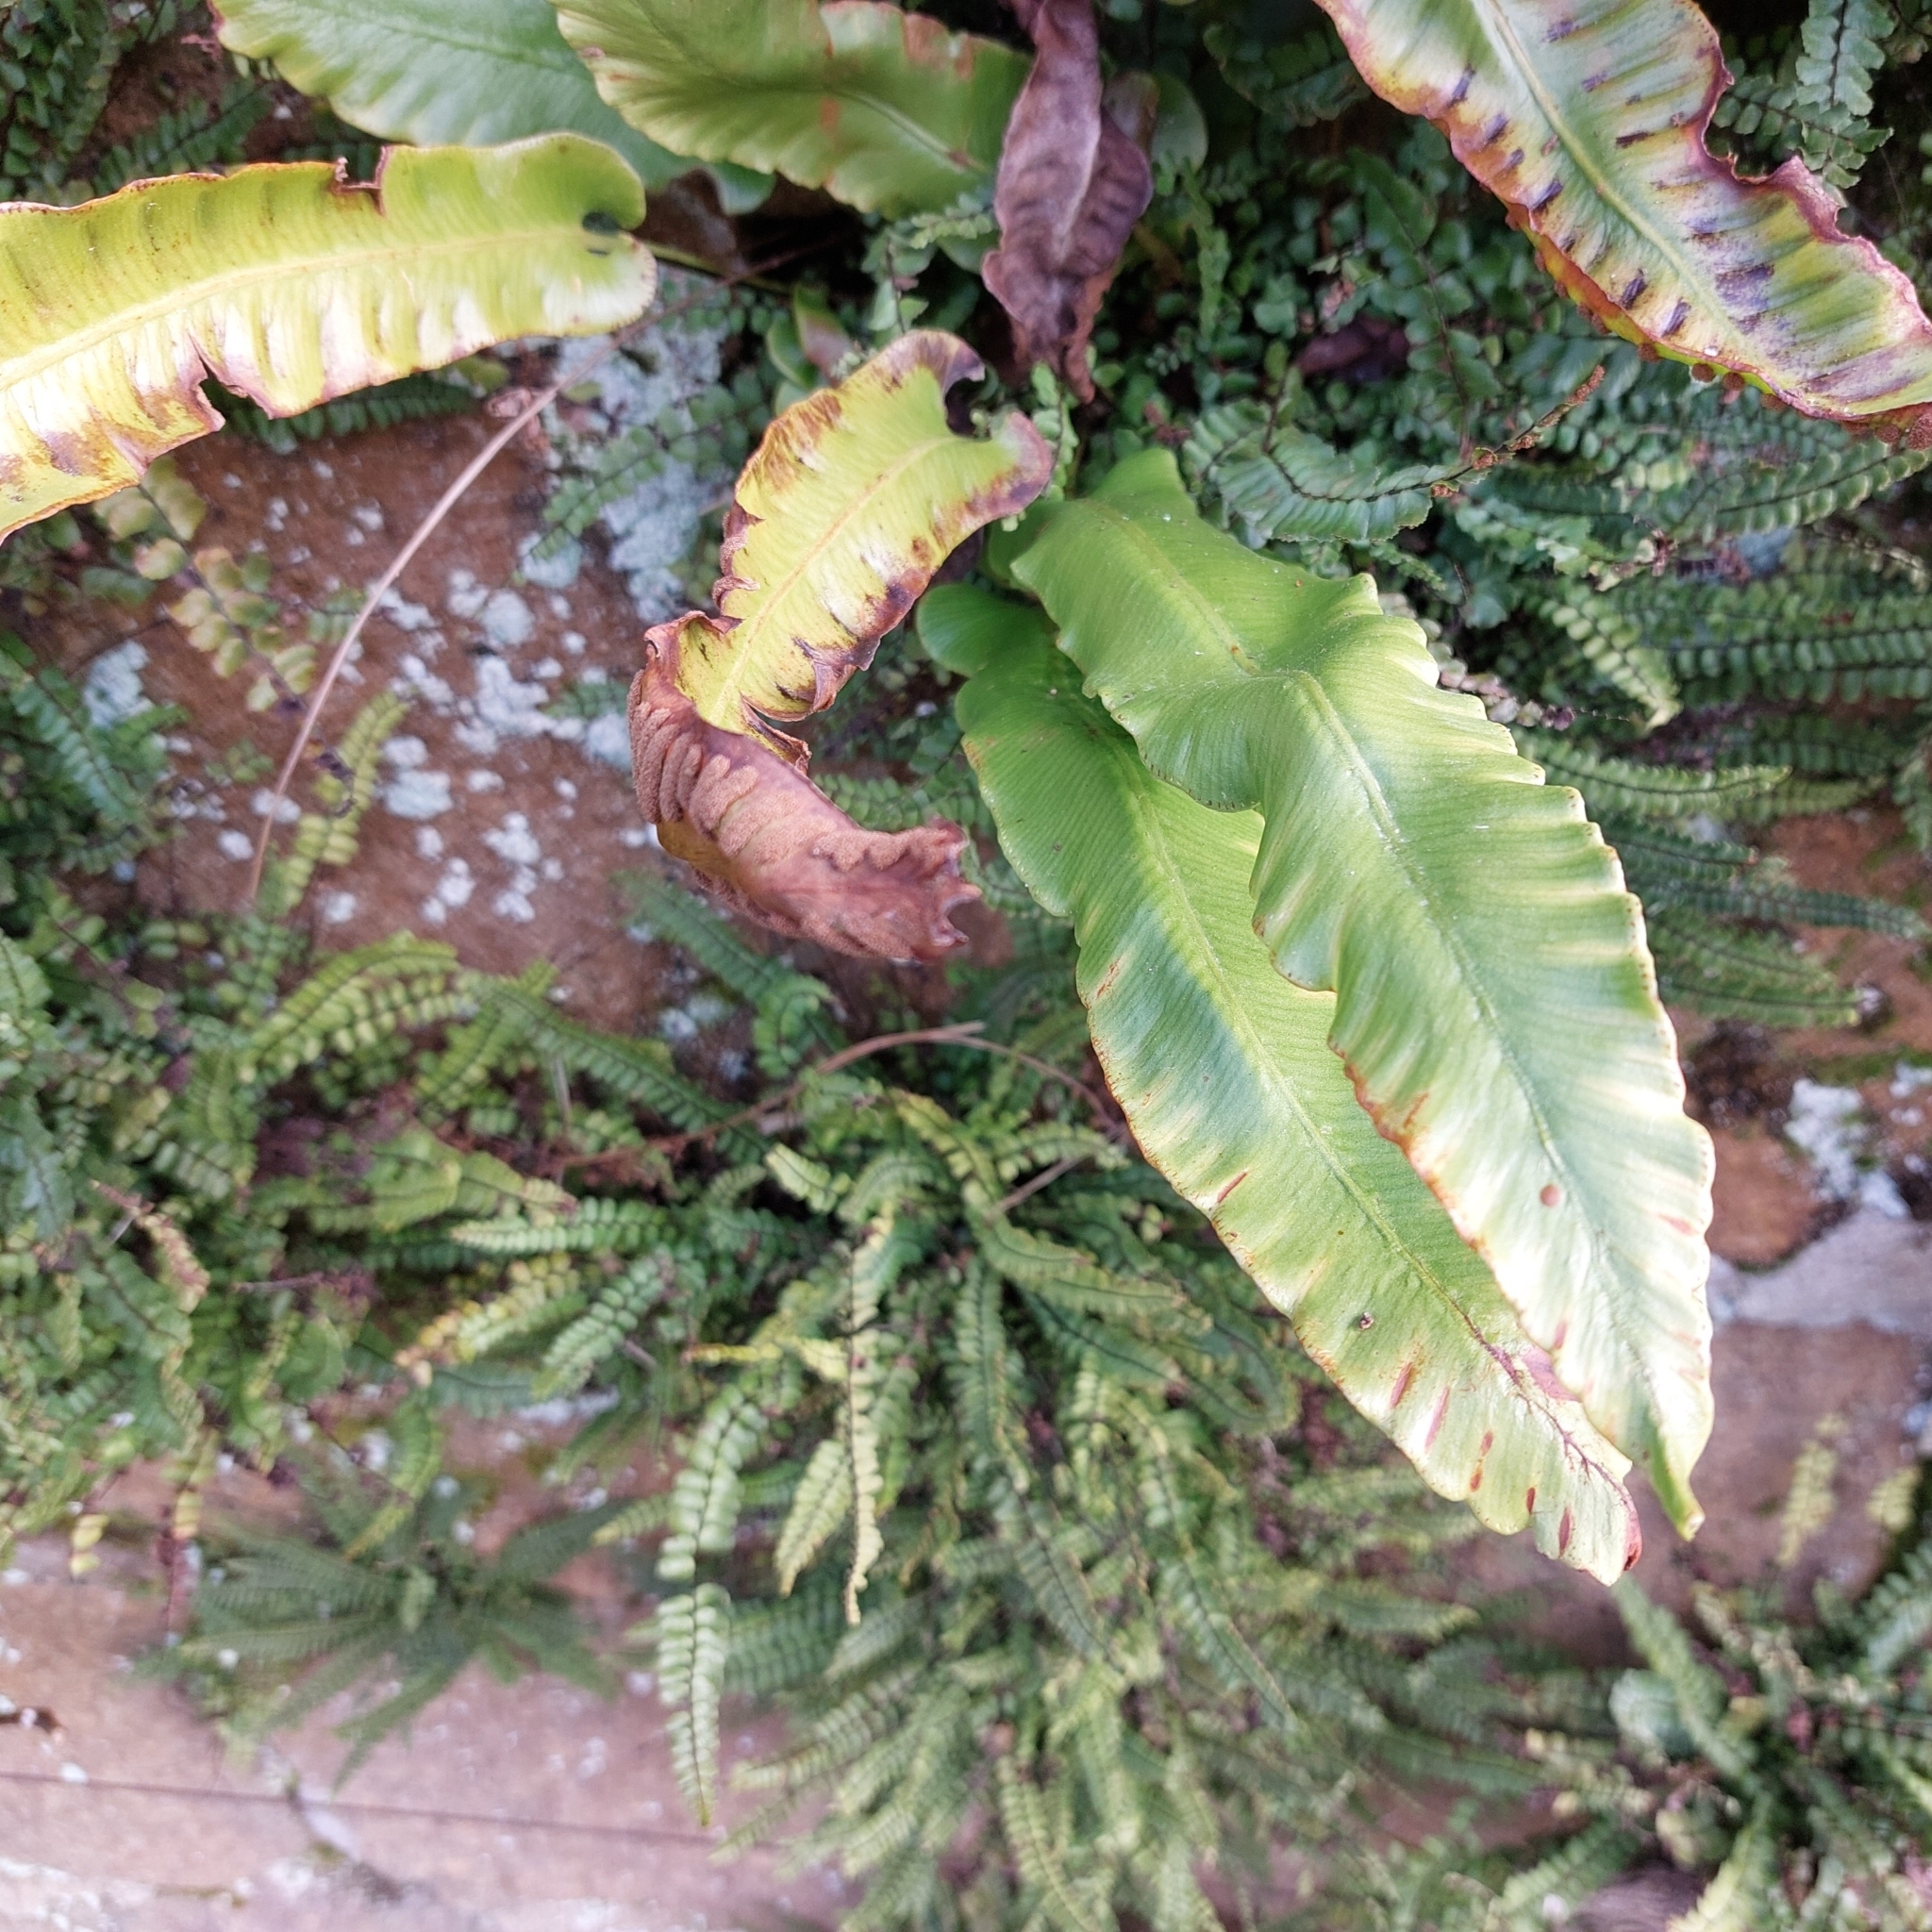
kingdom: Plantae
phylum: Tracheophyta
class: Polypodiopsida
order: Polypodiales
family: Aspleniaceae
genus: Asplenium
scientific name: Asplenium scolopendrium
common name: Hart's-tongue fern
